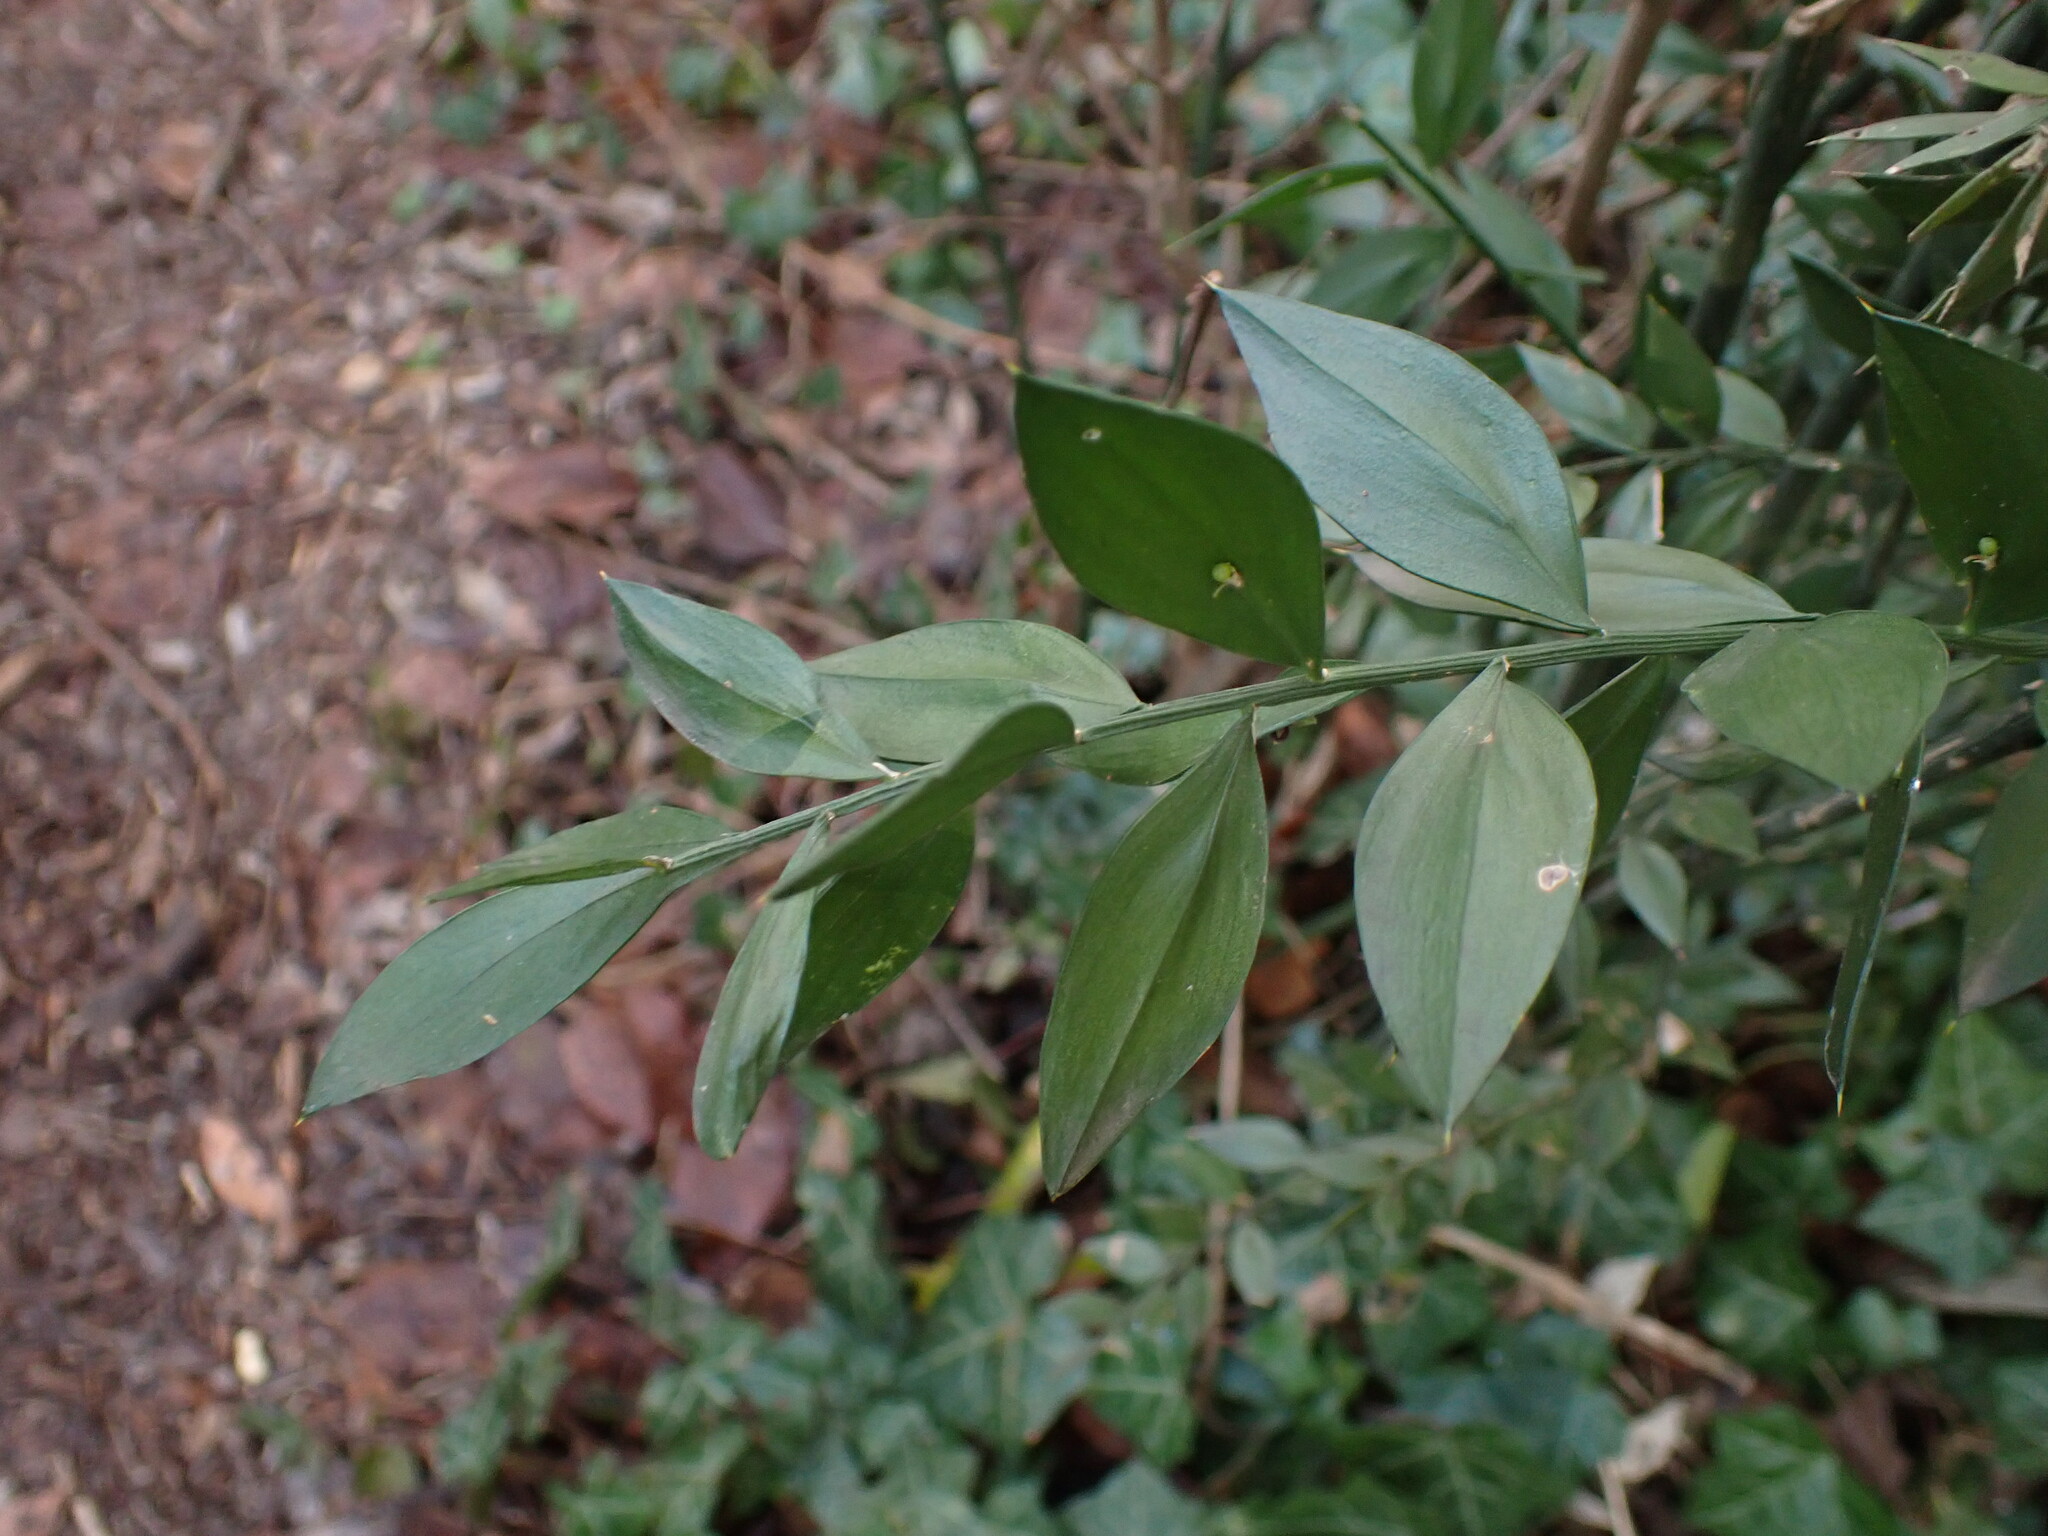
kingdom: Plantae
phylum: Tracheophyta
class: Liliopsida
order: Asparagales
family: Asparagaceae
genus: Ruscus
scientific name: Ruscus aculeatus
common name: Butcher's-broom
